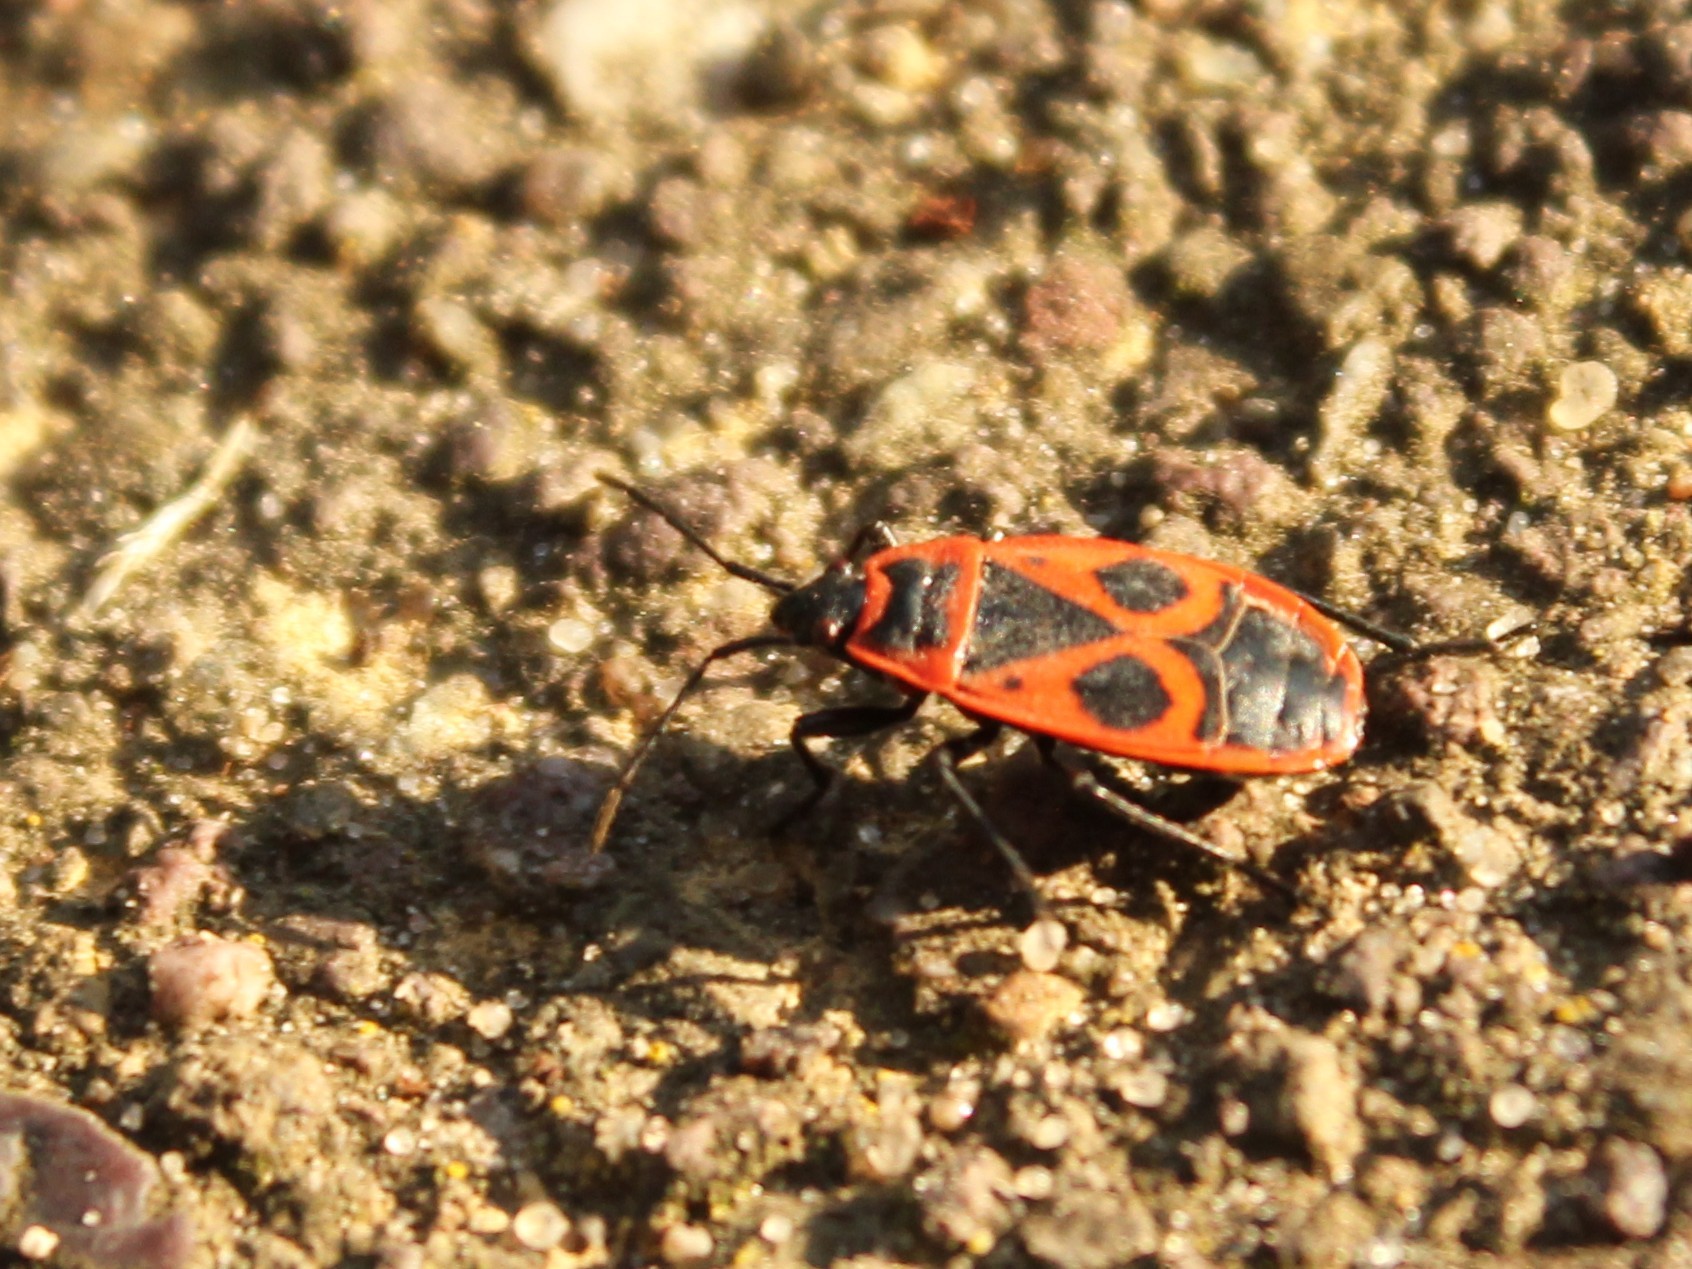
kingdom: Animalia
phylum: Arthropoda
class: Insecta
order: Hemiptera
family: Pyrrhocoridae
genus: Pyrrhocoris
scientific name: Pyrrhocoris apterus
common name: Firebug
